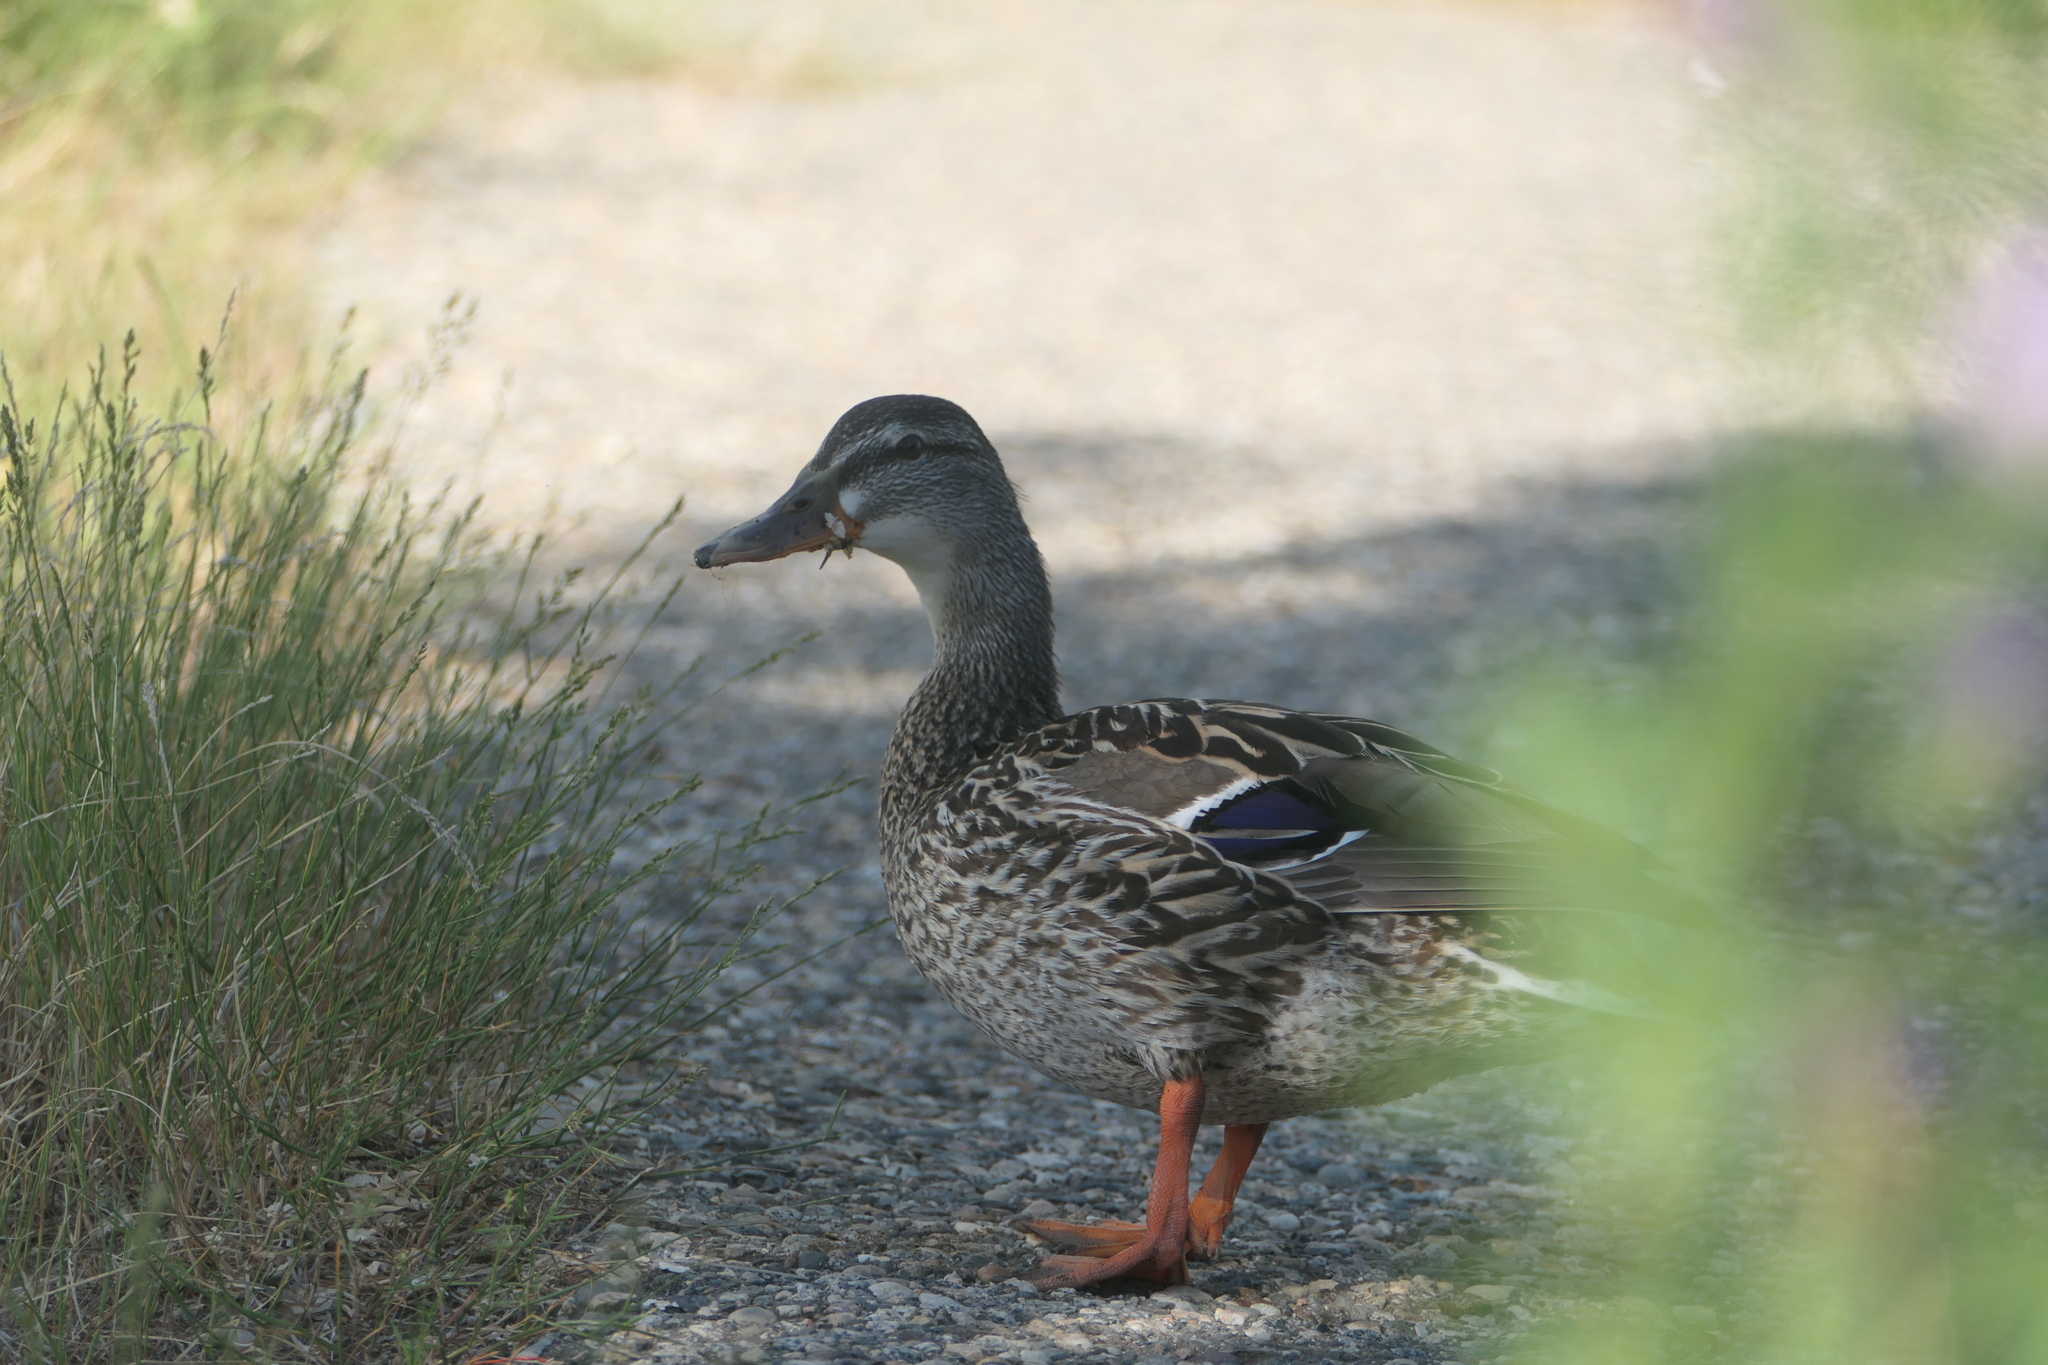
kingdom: Animalia
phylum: Chordata
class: Aves
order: Anseriformes
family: Anatidae
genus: Anas
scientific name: Anas platyrhynchos
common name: Mallard
